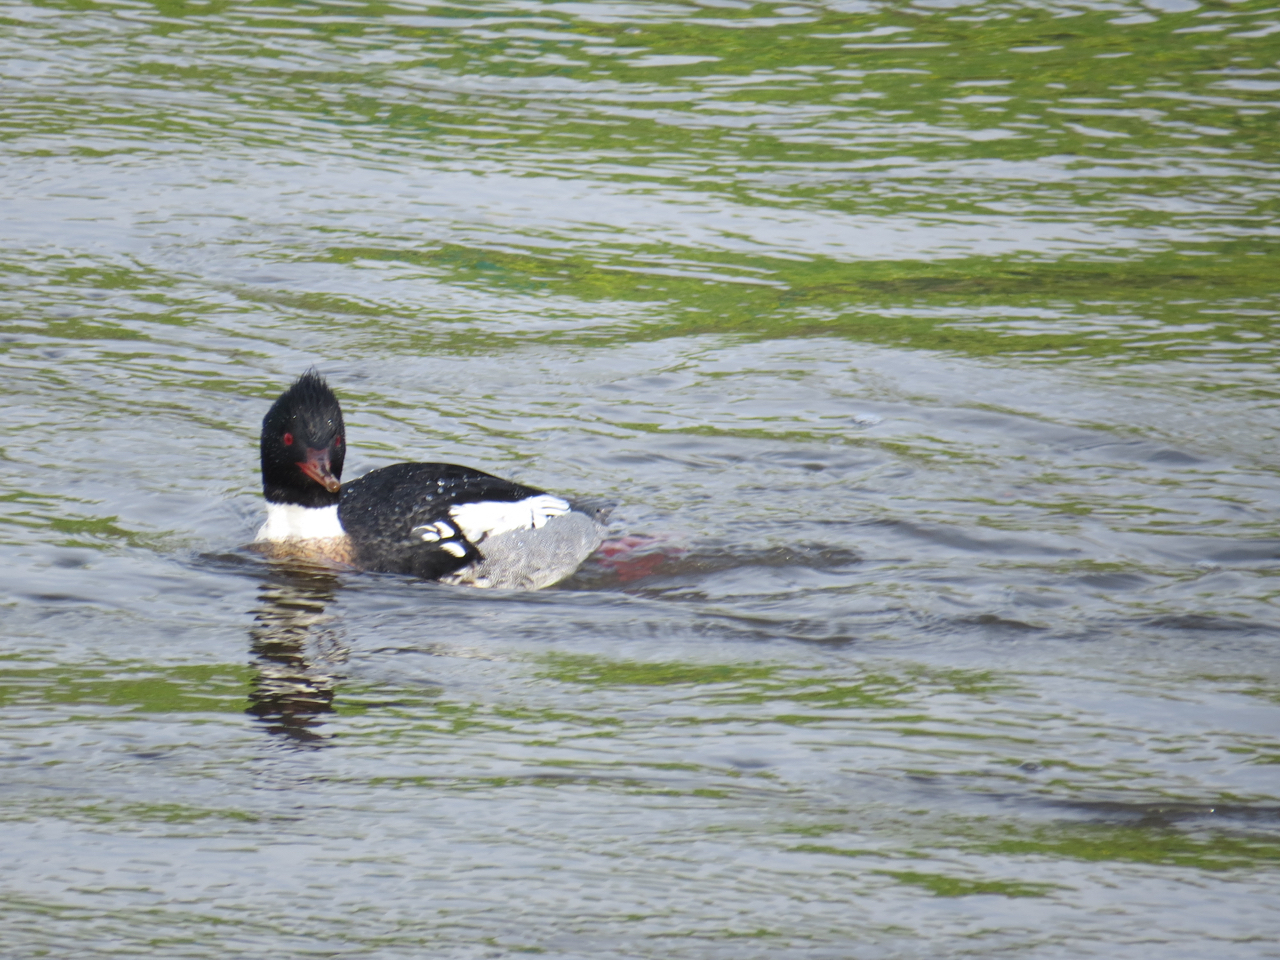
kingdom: Animalia
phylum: Chordata
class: Aves
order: Anseriformes
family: Anatidae
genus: Mergus
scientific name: Mergus serrator
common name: Red-breasted merganser
